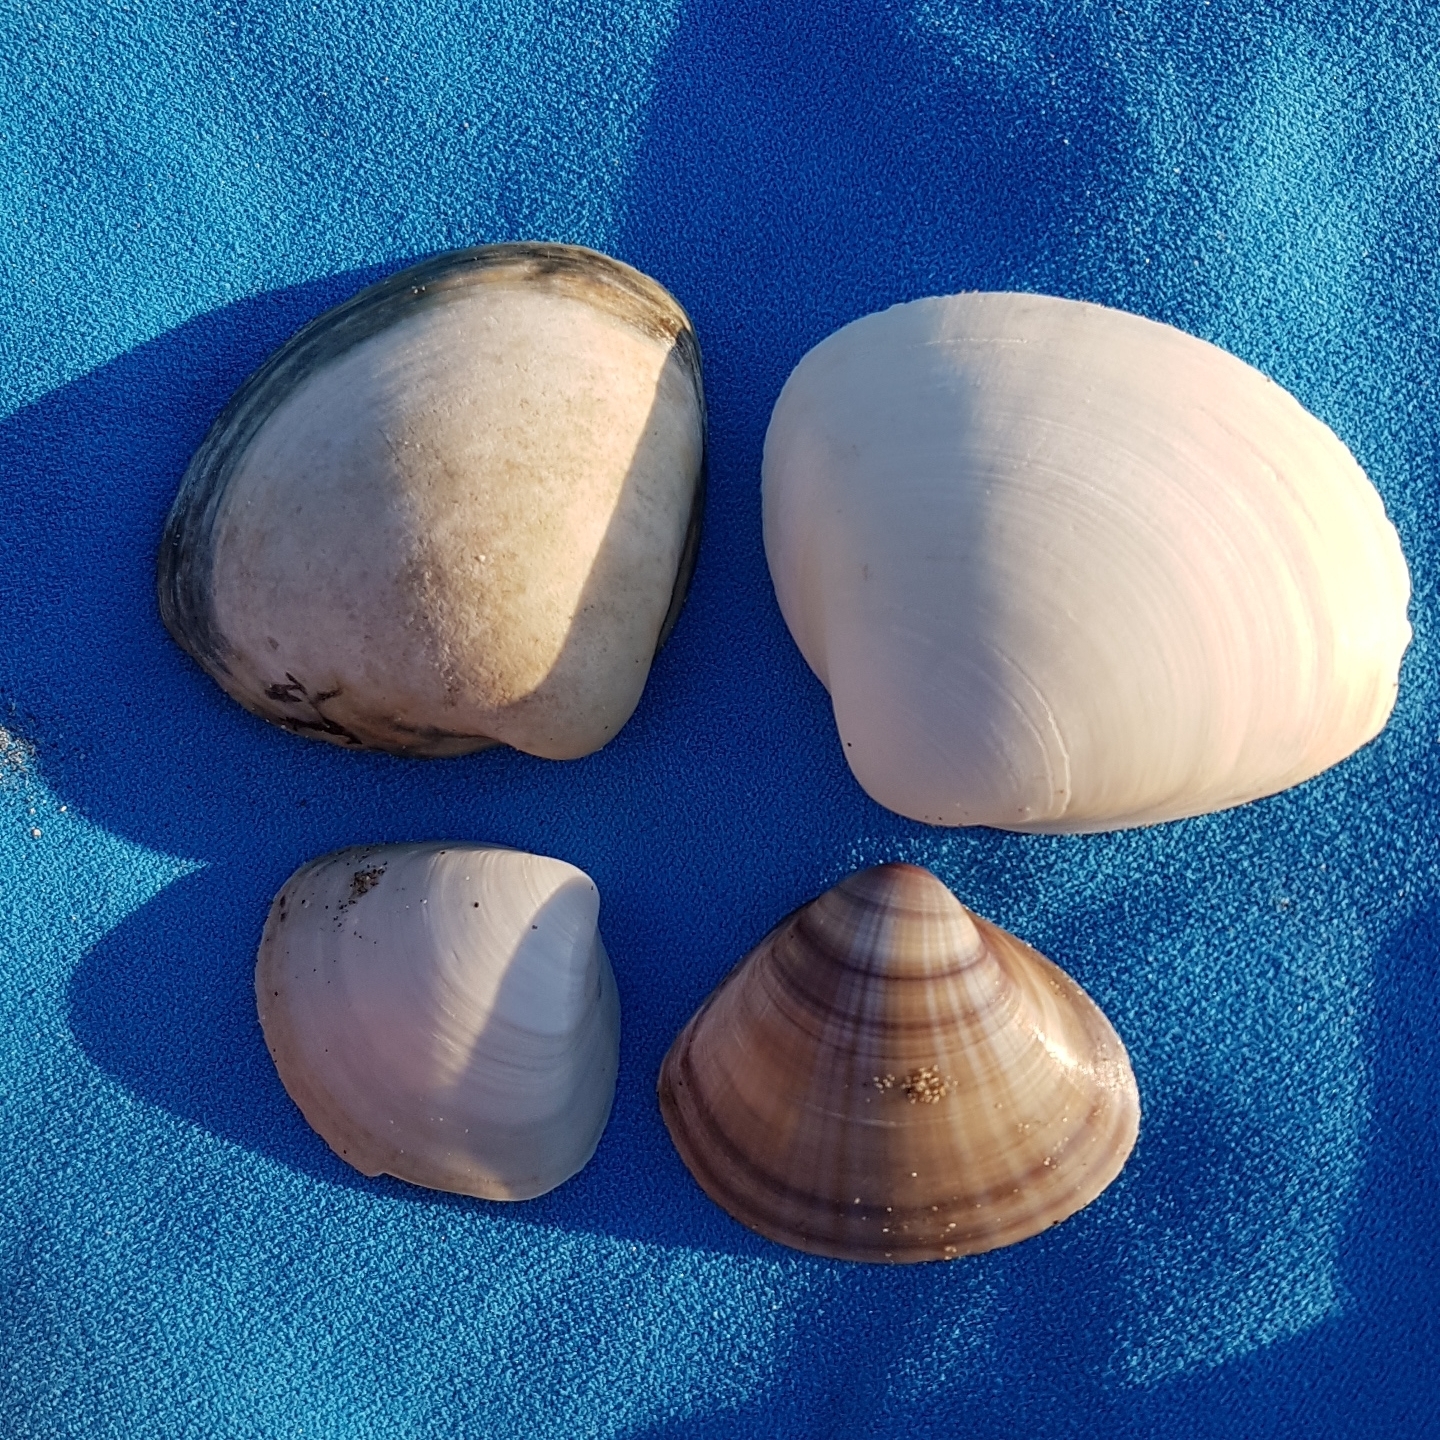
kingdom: Animalia
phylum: Mollusca
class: Bivalvia
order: Venerida
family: Mactridae
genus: Mactra
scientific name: Mactra stultorum
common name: Rayed trough shell
